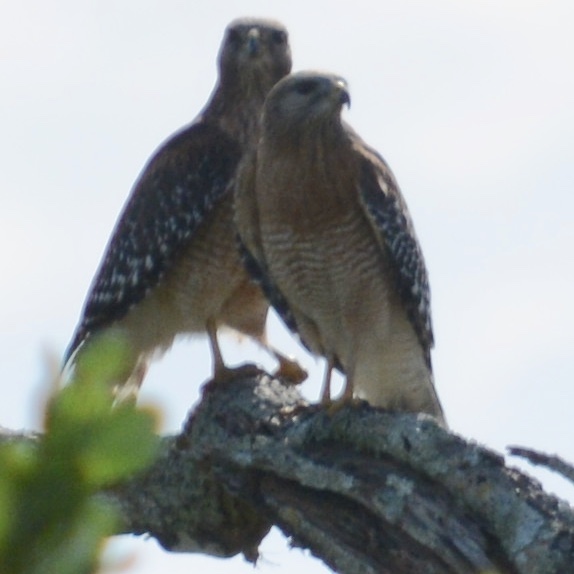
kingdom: Animalia
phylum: Chordata
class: Aves
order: Accipitriformes
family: Accipitridae
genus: Buteo
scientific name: Buteo lineatus
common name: Red-shouldered hawk
